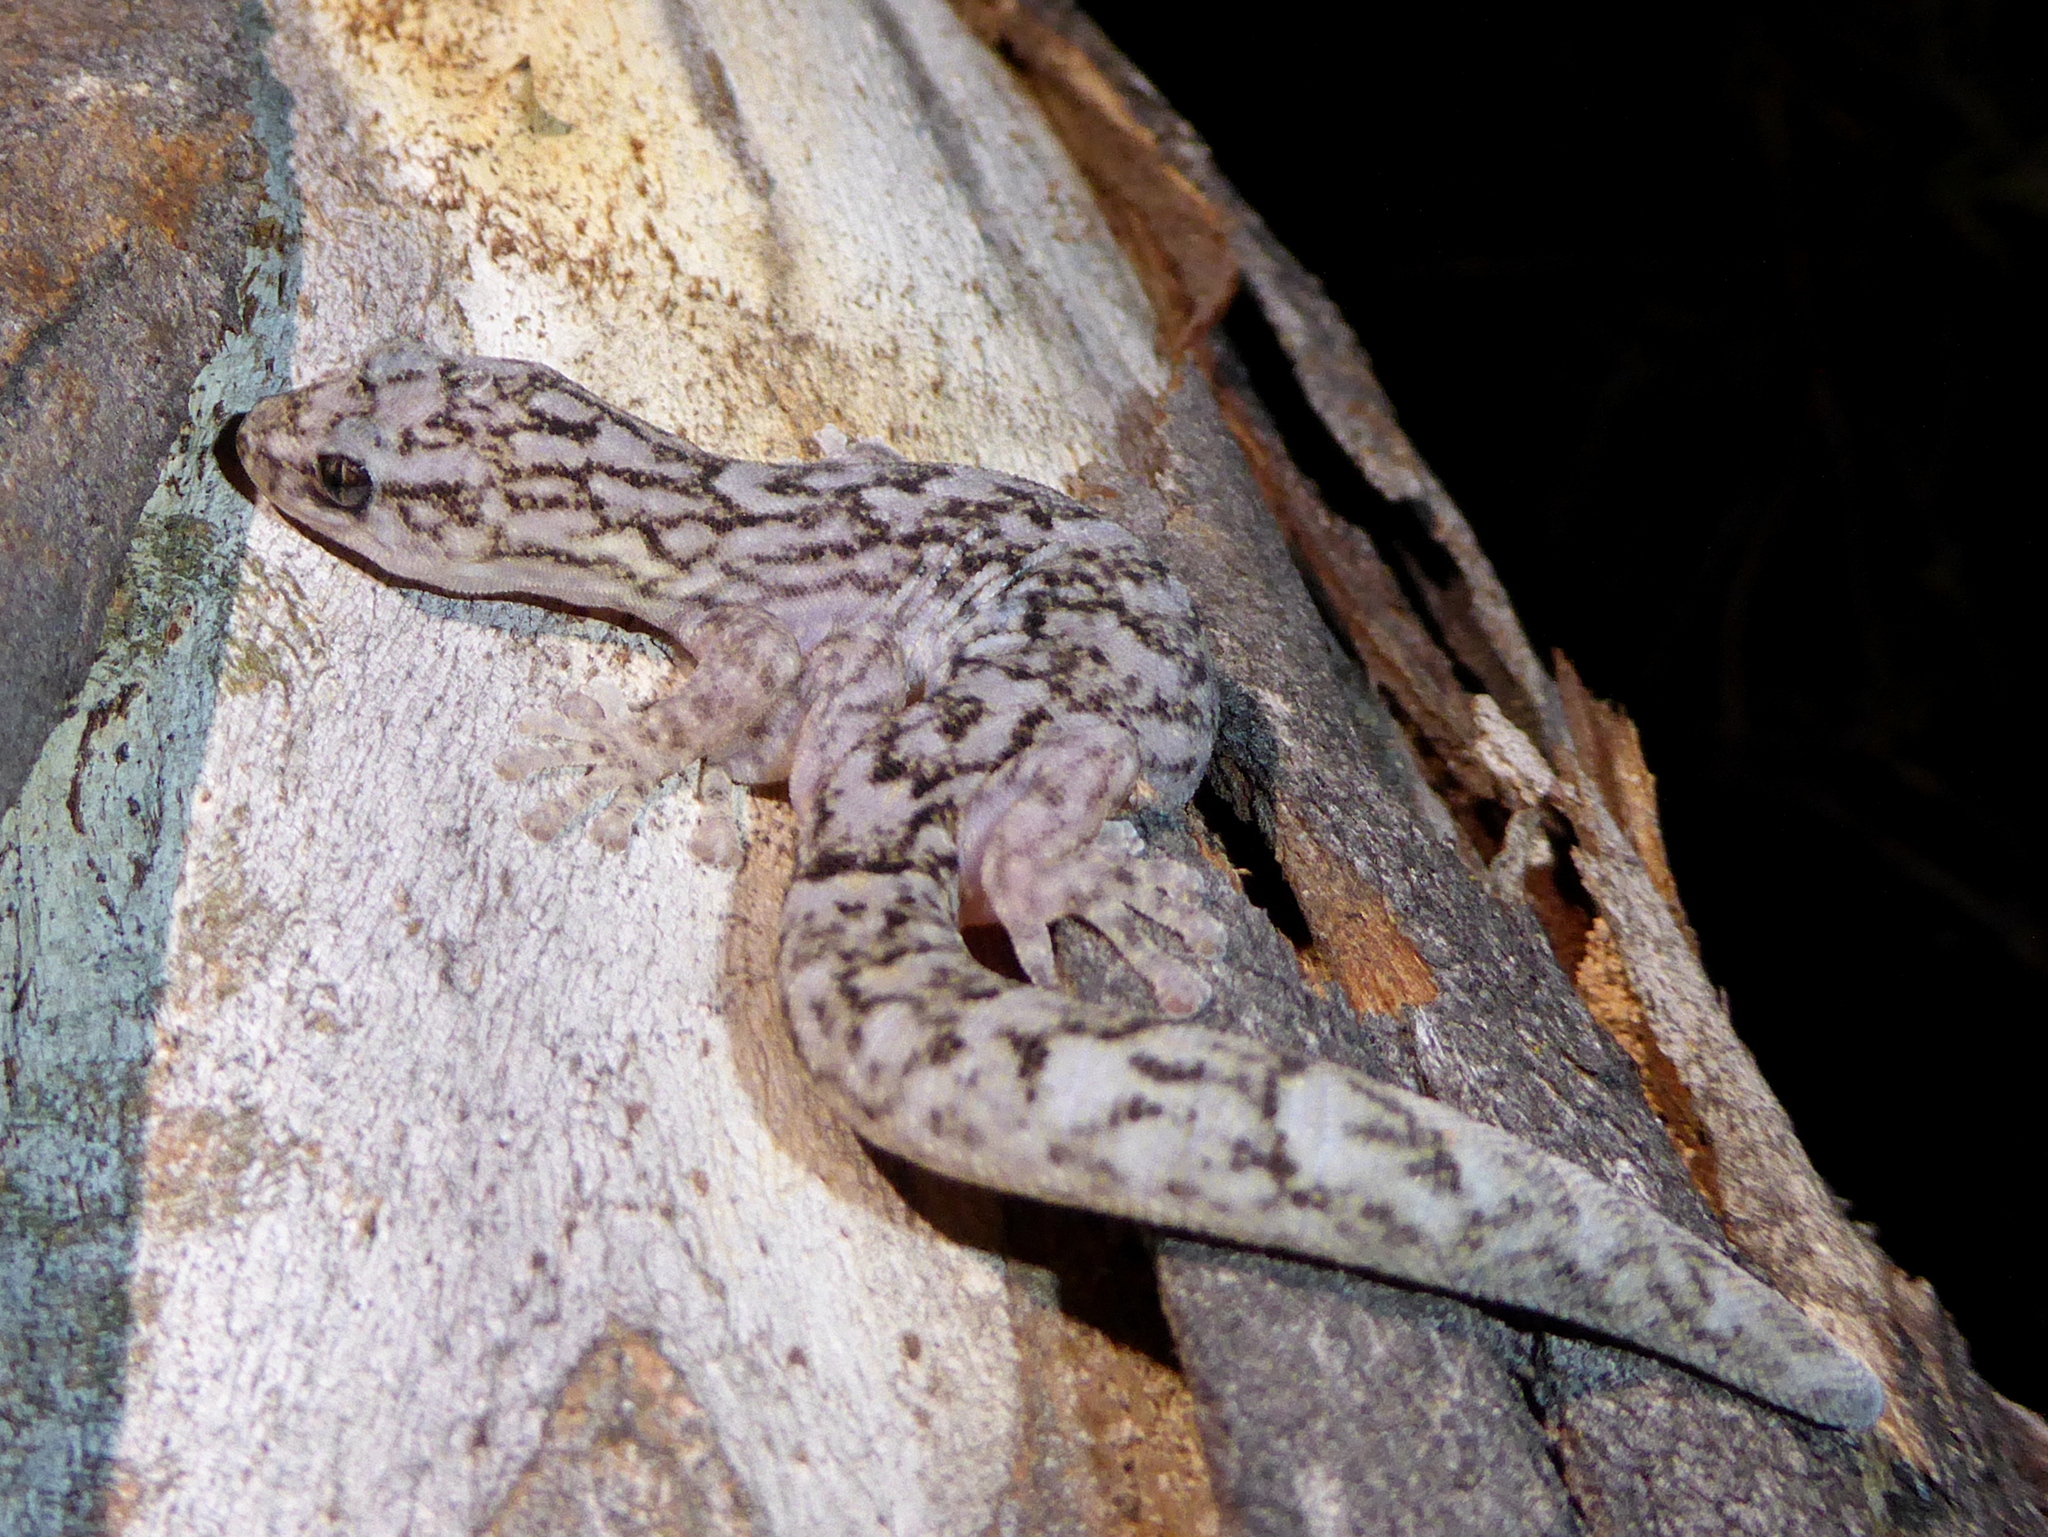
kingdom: Animalia
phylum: Chordata
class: Squamata
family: Gekkonidae
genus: Christinus
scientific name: Christinus marmoratus
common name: Marbled gecko
